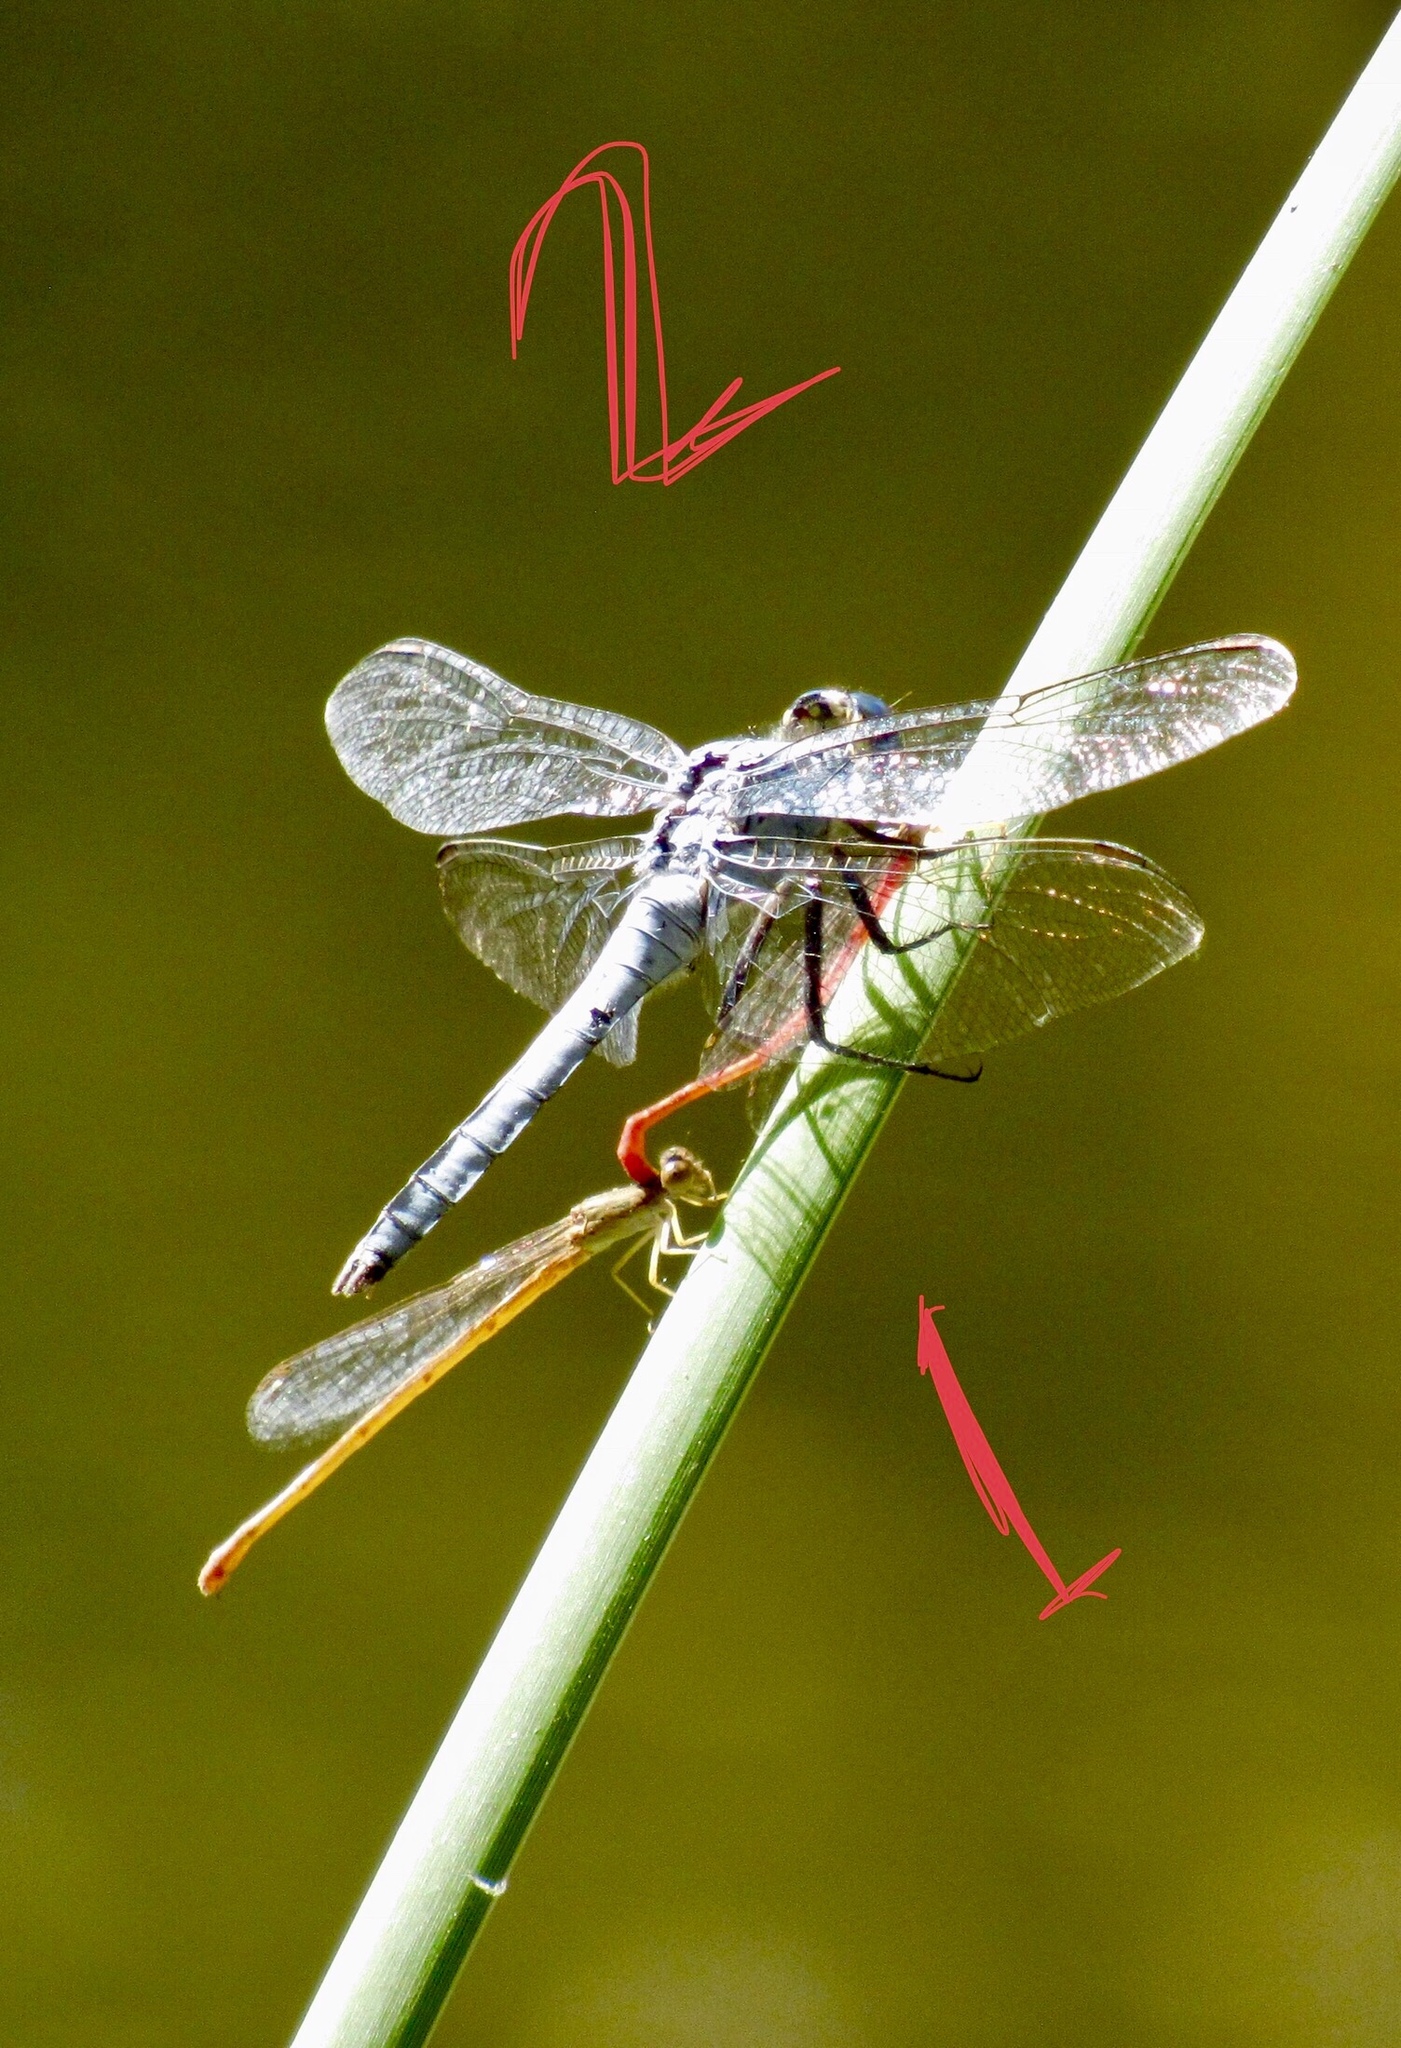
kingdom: Animalia
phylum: Arthropoda
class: Insecta
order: Odonata
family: Libellulidae
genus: Erythemis
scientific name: Erythemis collocata
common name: Western pondhawk
